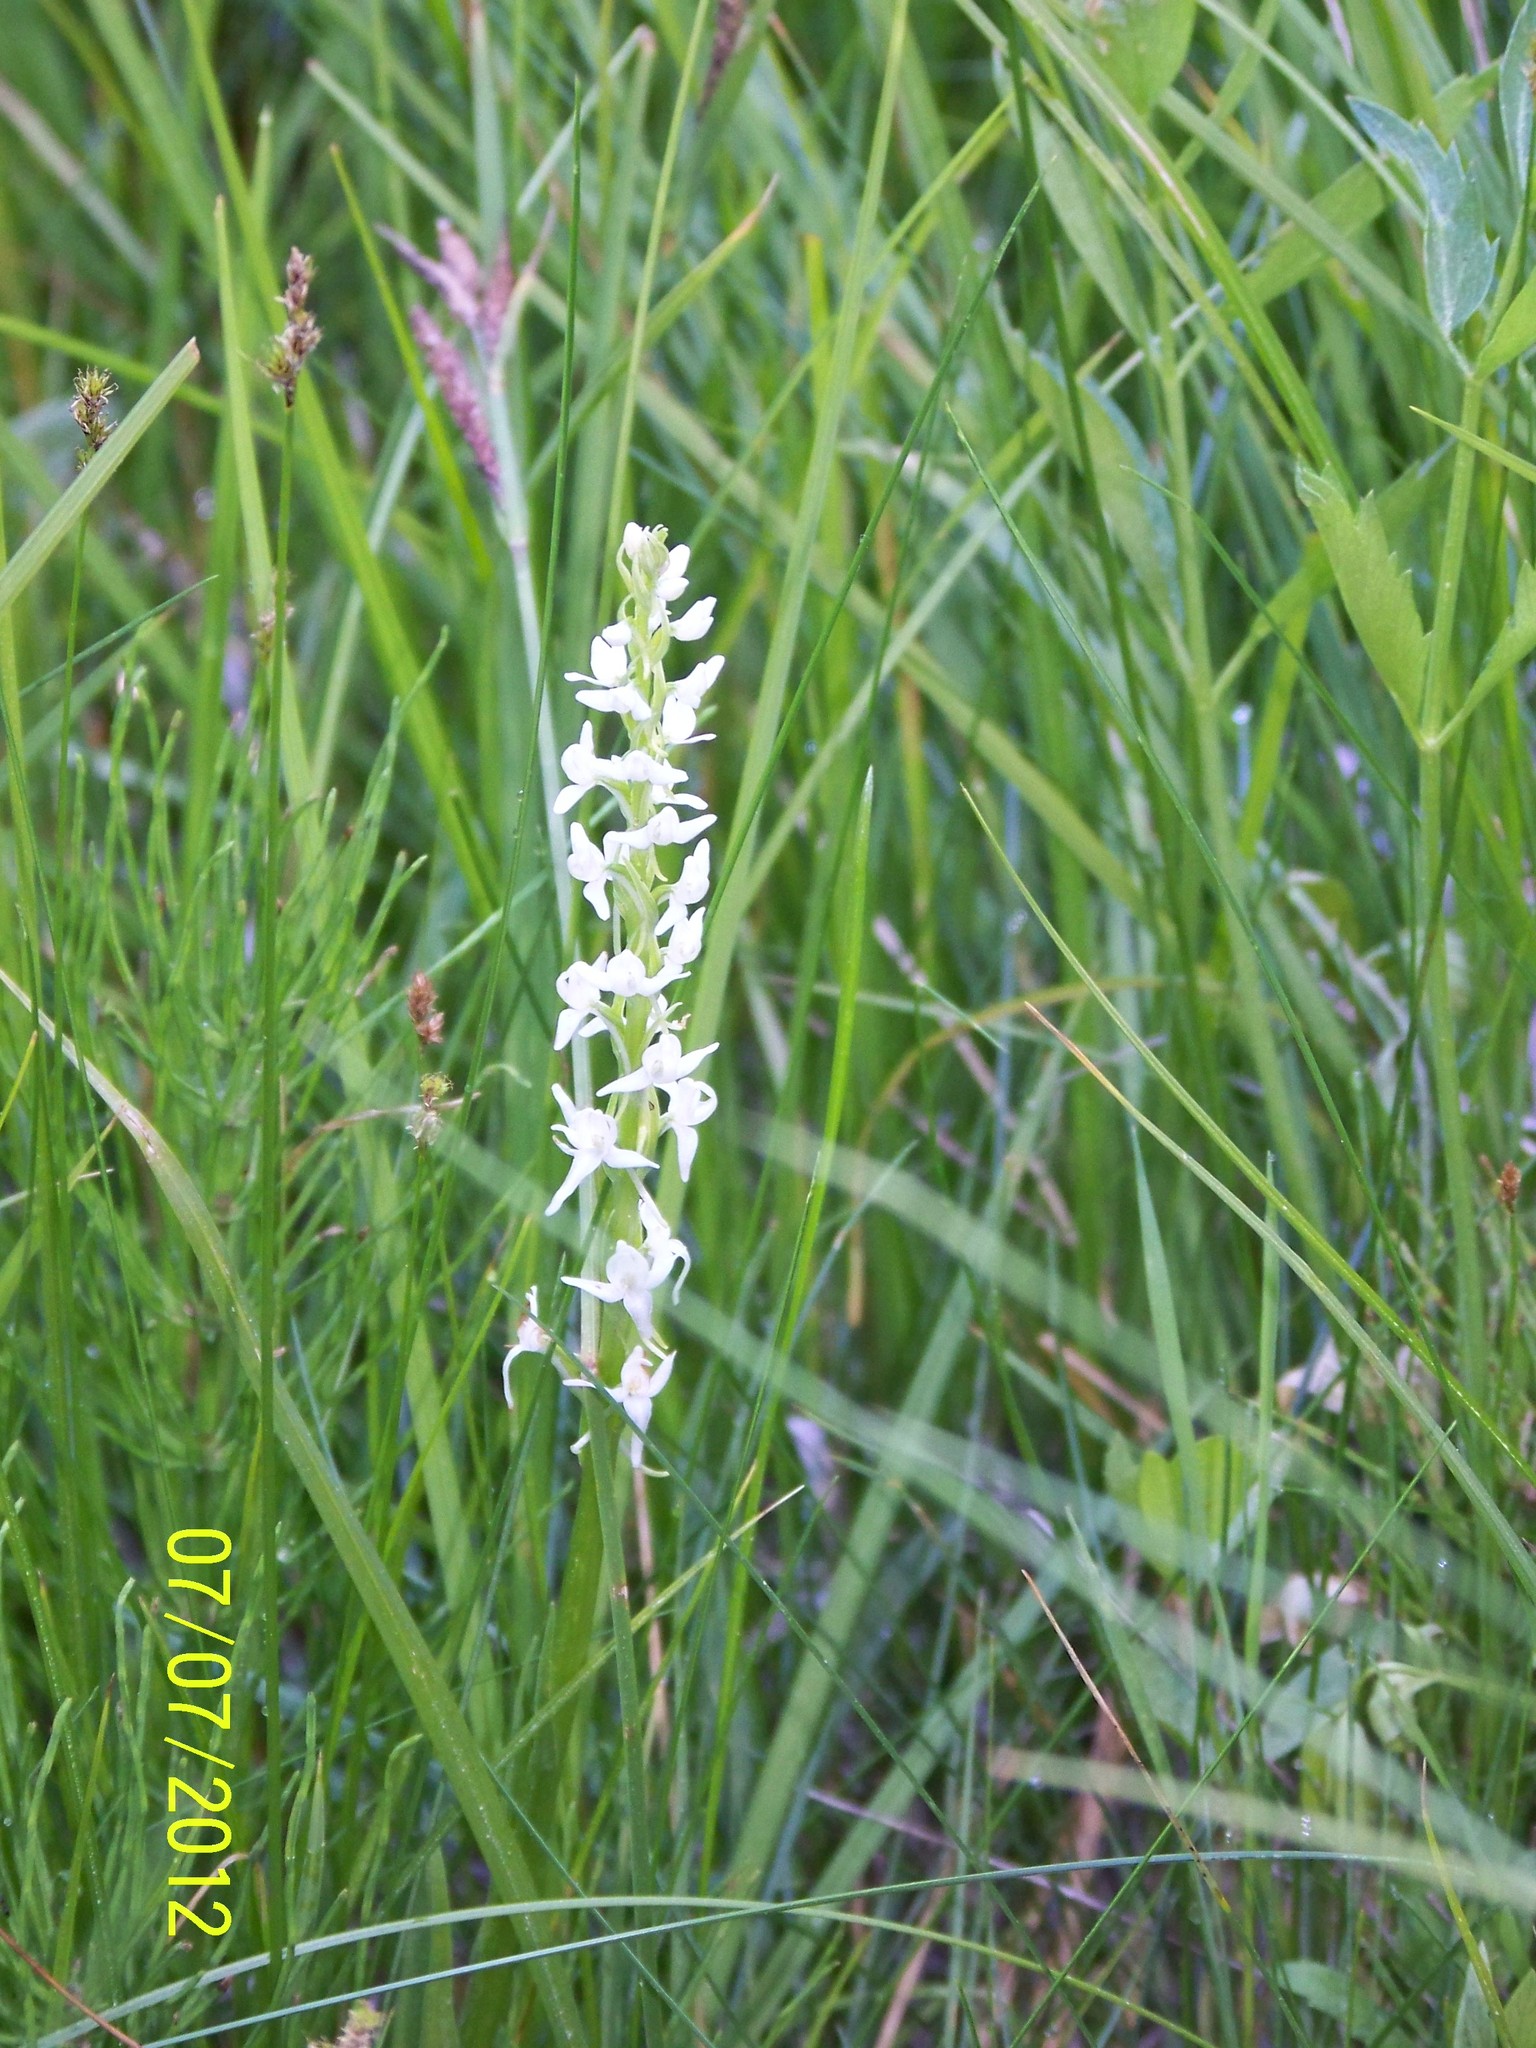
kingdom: Plantae
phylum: Tracheophyta
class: Liliopsida
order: Asparagales
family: Orchidaceae
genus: Platanthera
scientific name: Platanthera dilatata
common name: Bog candles
